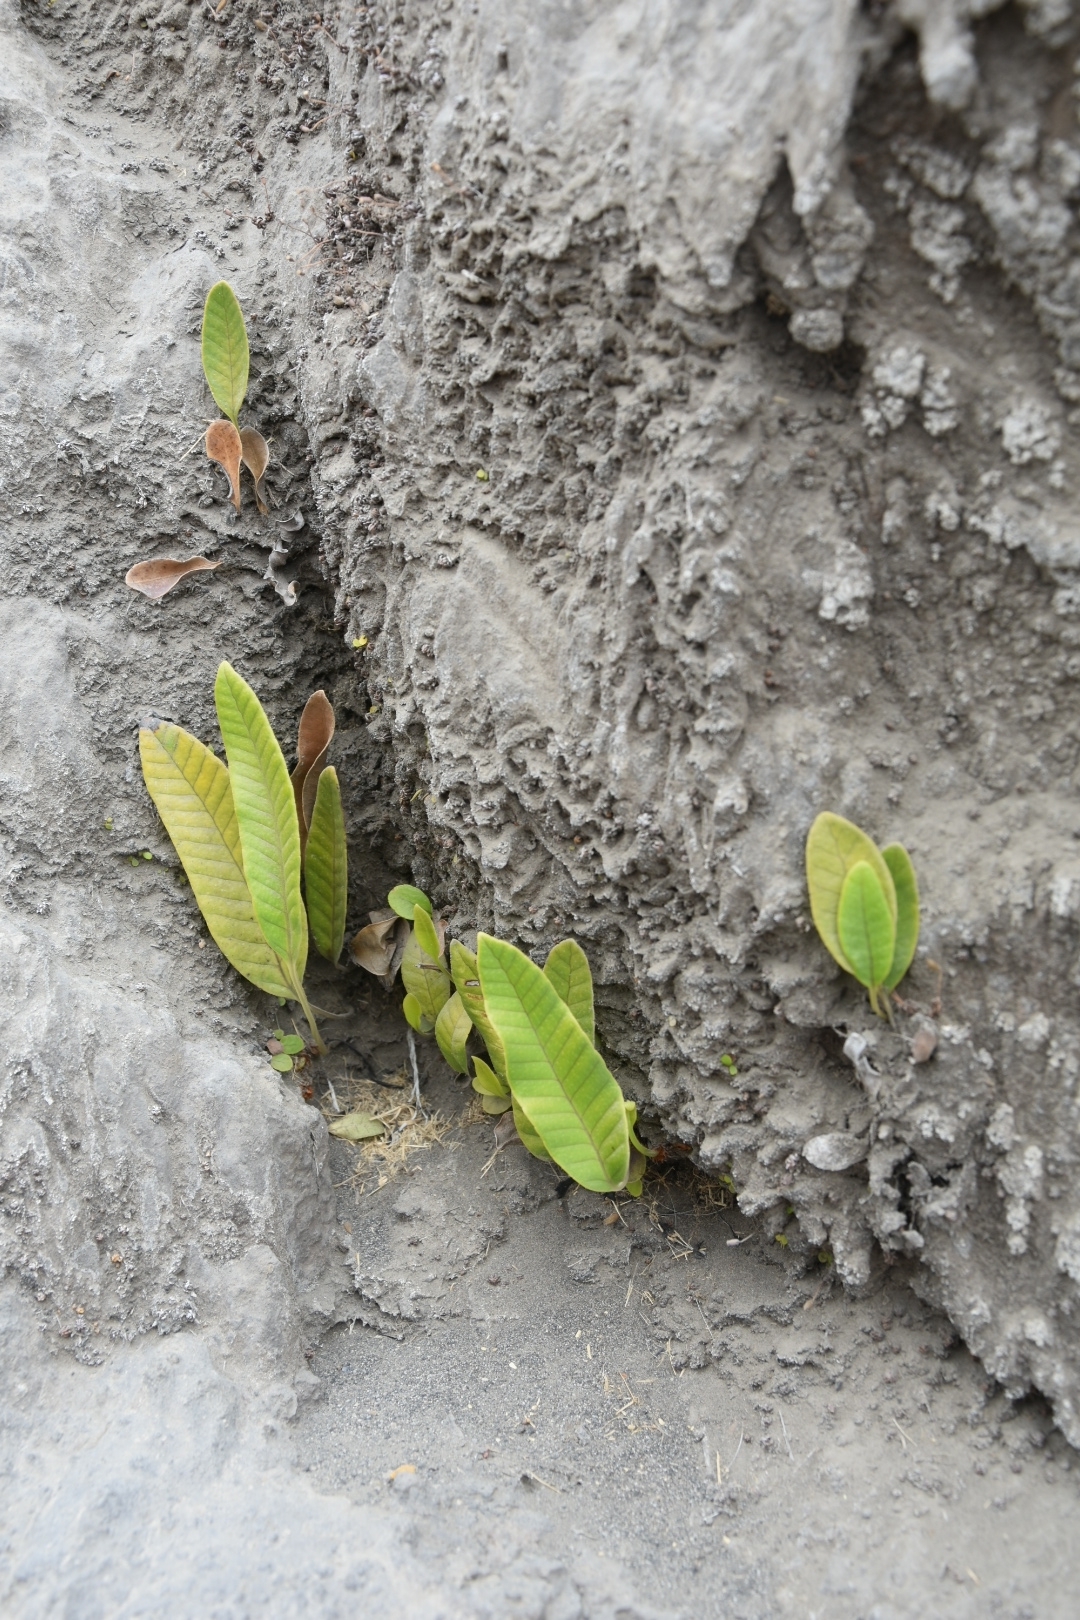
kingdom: Plantae
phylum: Tracheophyta
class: Polypodiopsida
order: Polypodiales
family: Polypodiaceae
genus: Selliguea
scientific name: Selliguea feei
